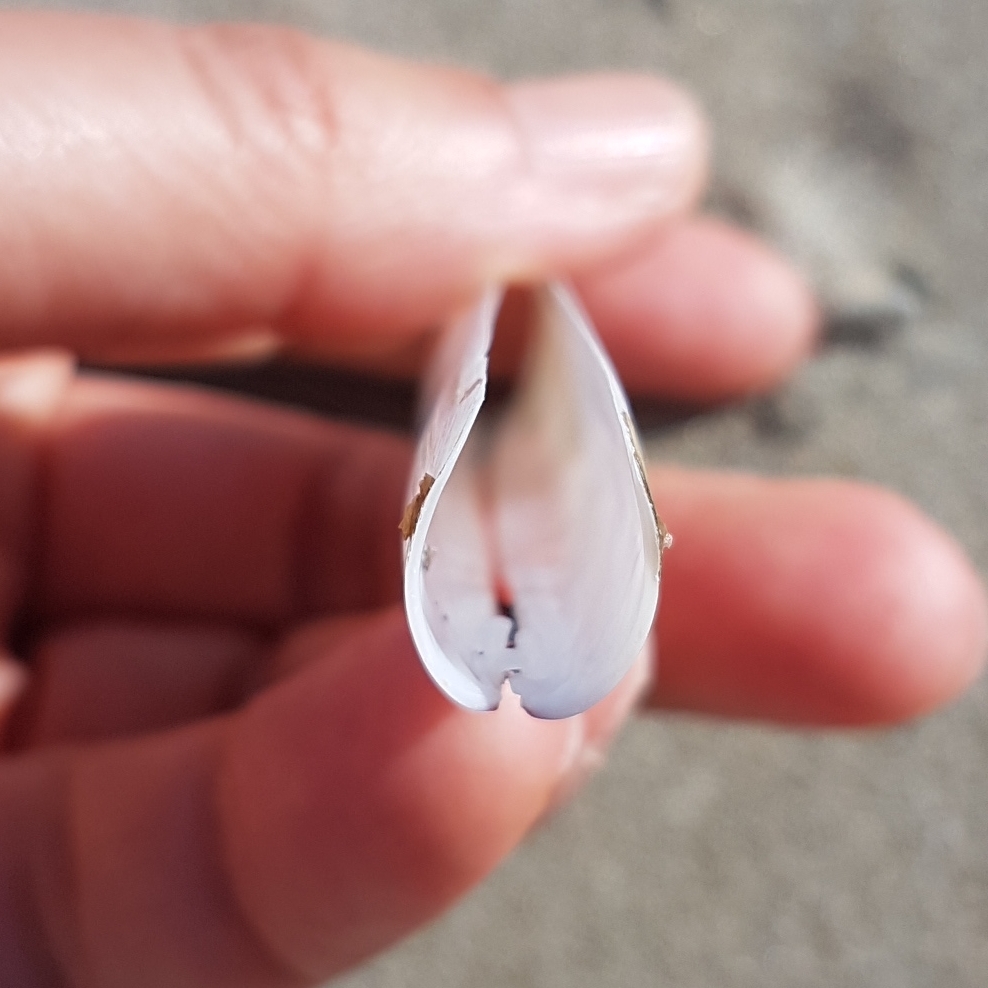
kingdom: Animalia
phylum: Mollusca
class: Bivalvia
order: Adapedonta
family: Pharidae
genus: Ensis
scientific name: Ensis minor
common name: Minor jackknife clam
